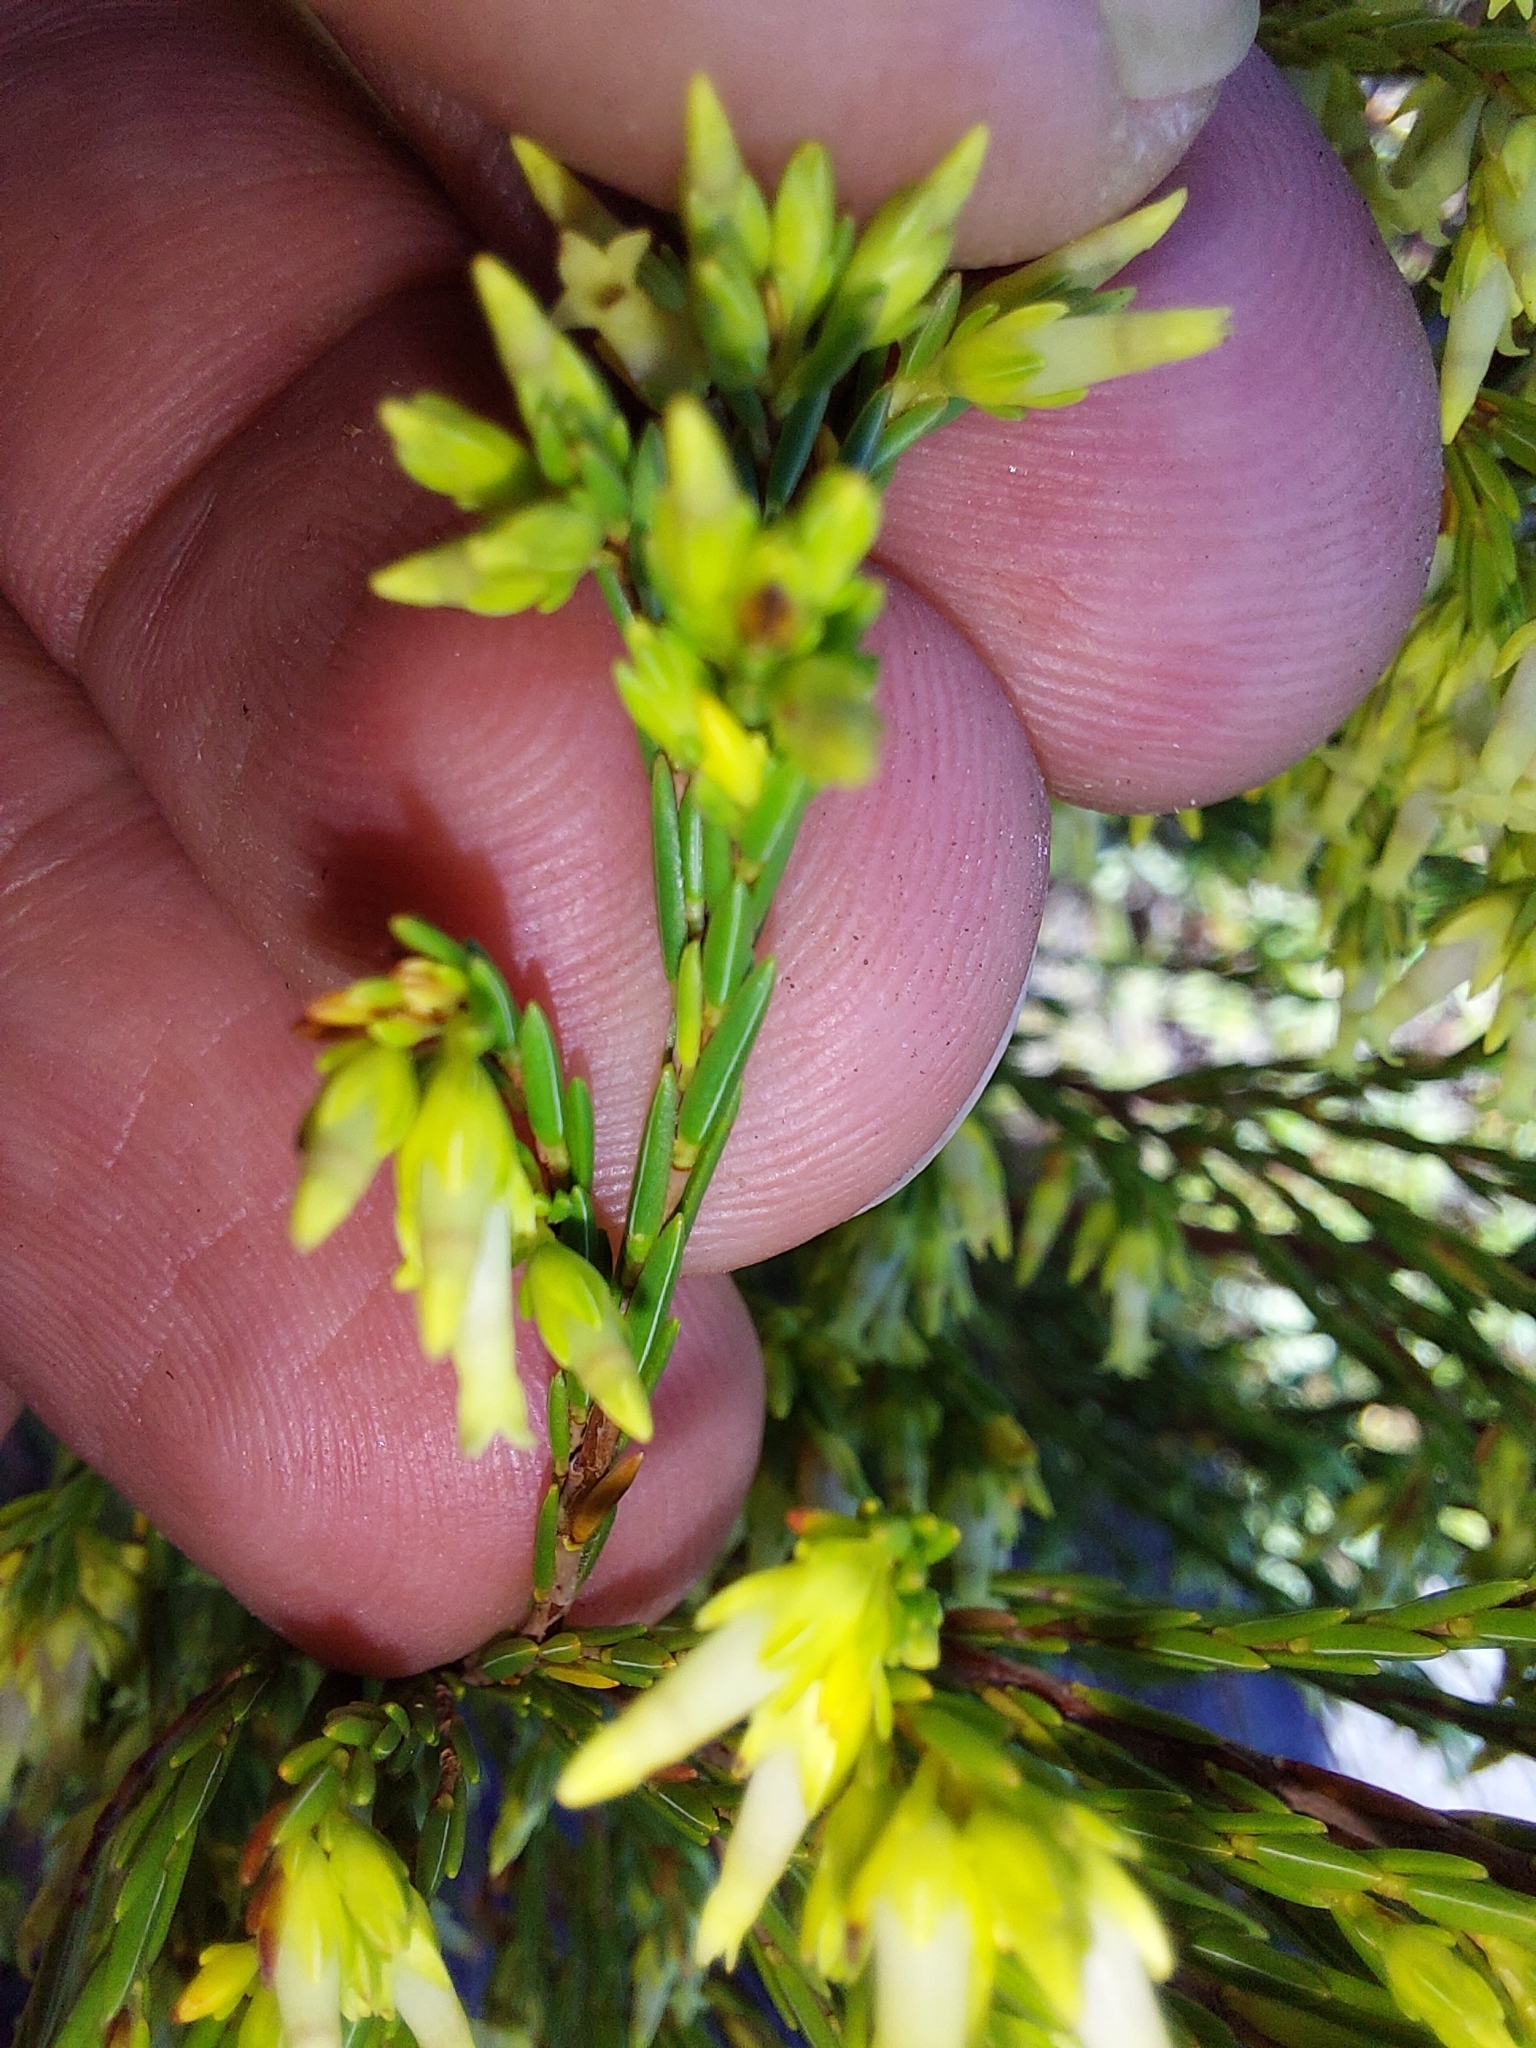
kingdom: Plantae
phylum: Tracheophyta
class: Magnoliopsida
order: Ericales
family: Ericaceae
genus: Erica
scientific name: Erica lutea
